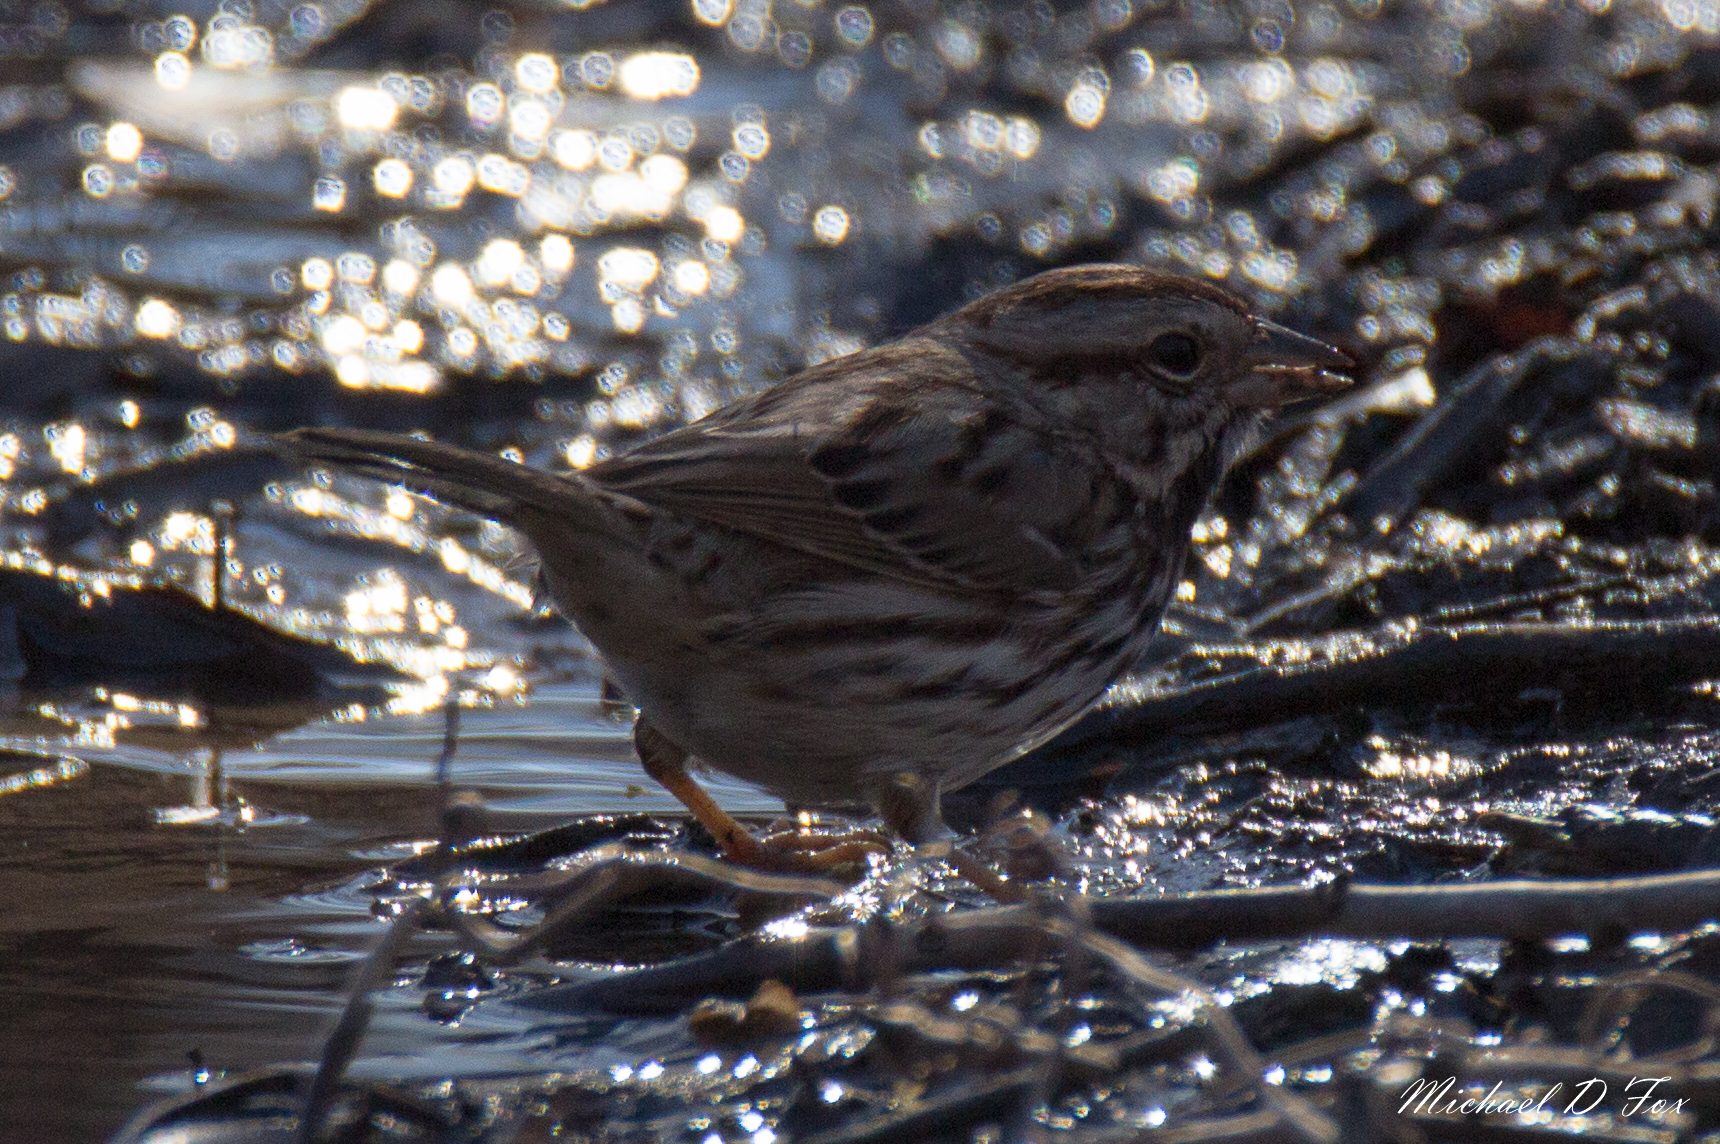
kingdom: Animalia
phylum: Chordata
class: Aves
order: Passeriformes
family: Passerellidae
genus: Melospiza
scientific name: Melospiza melodia
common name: Song sparrow
